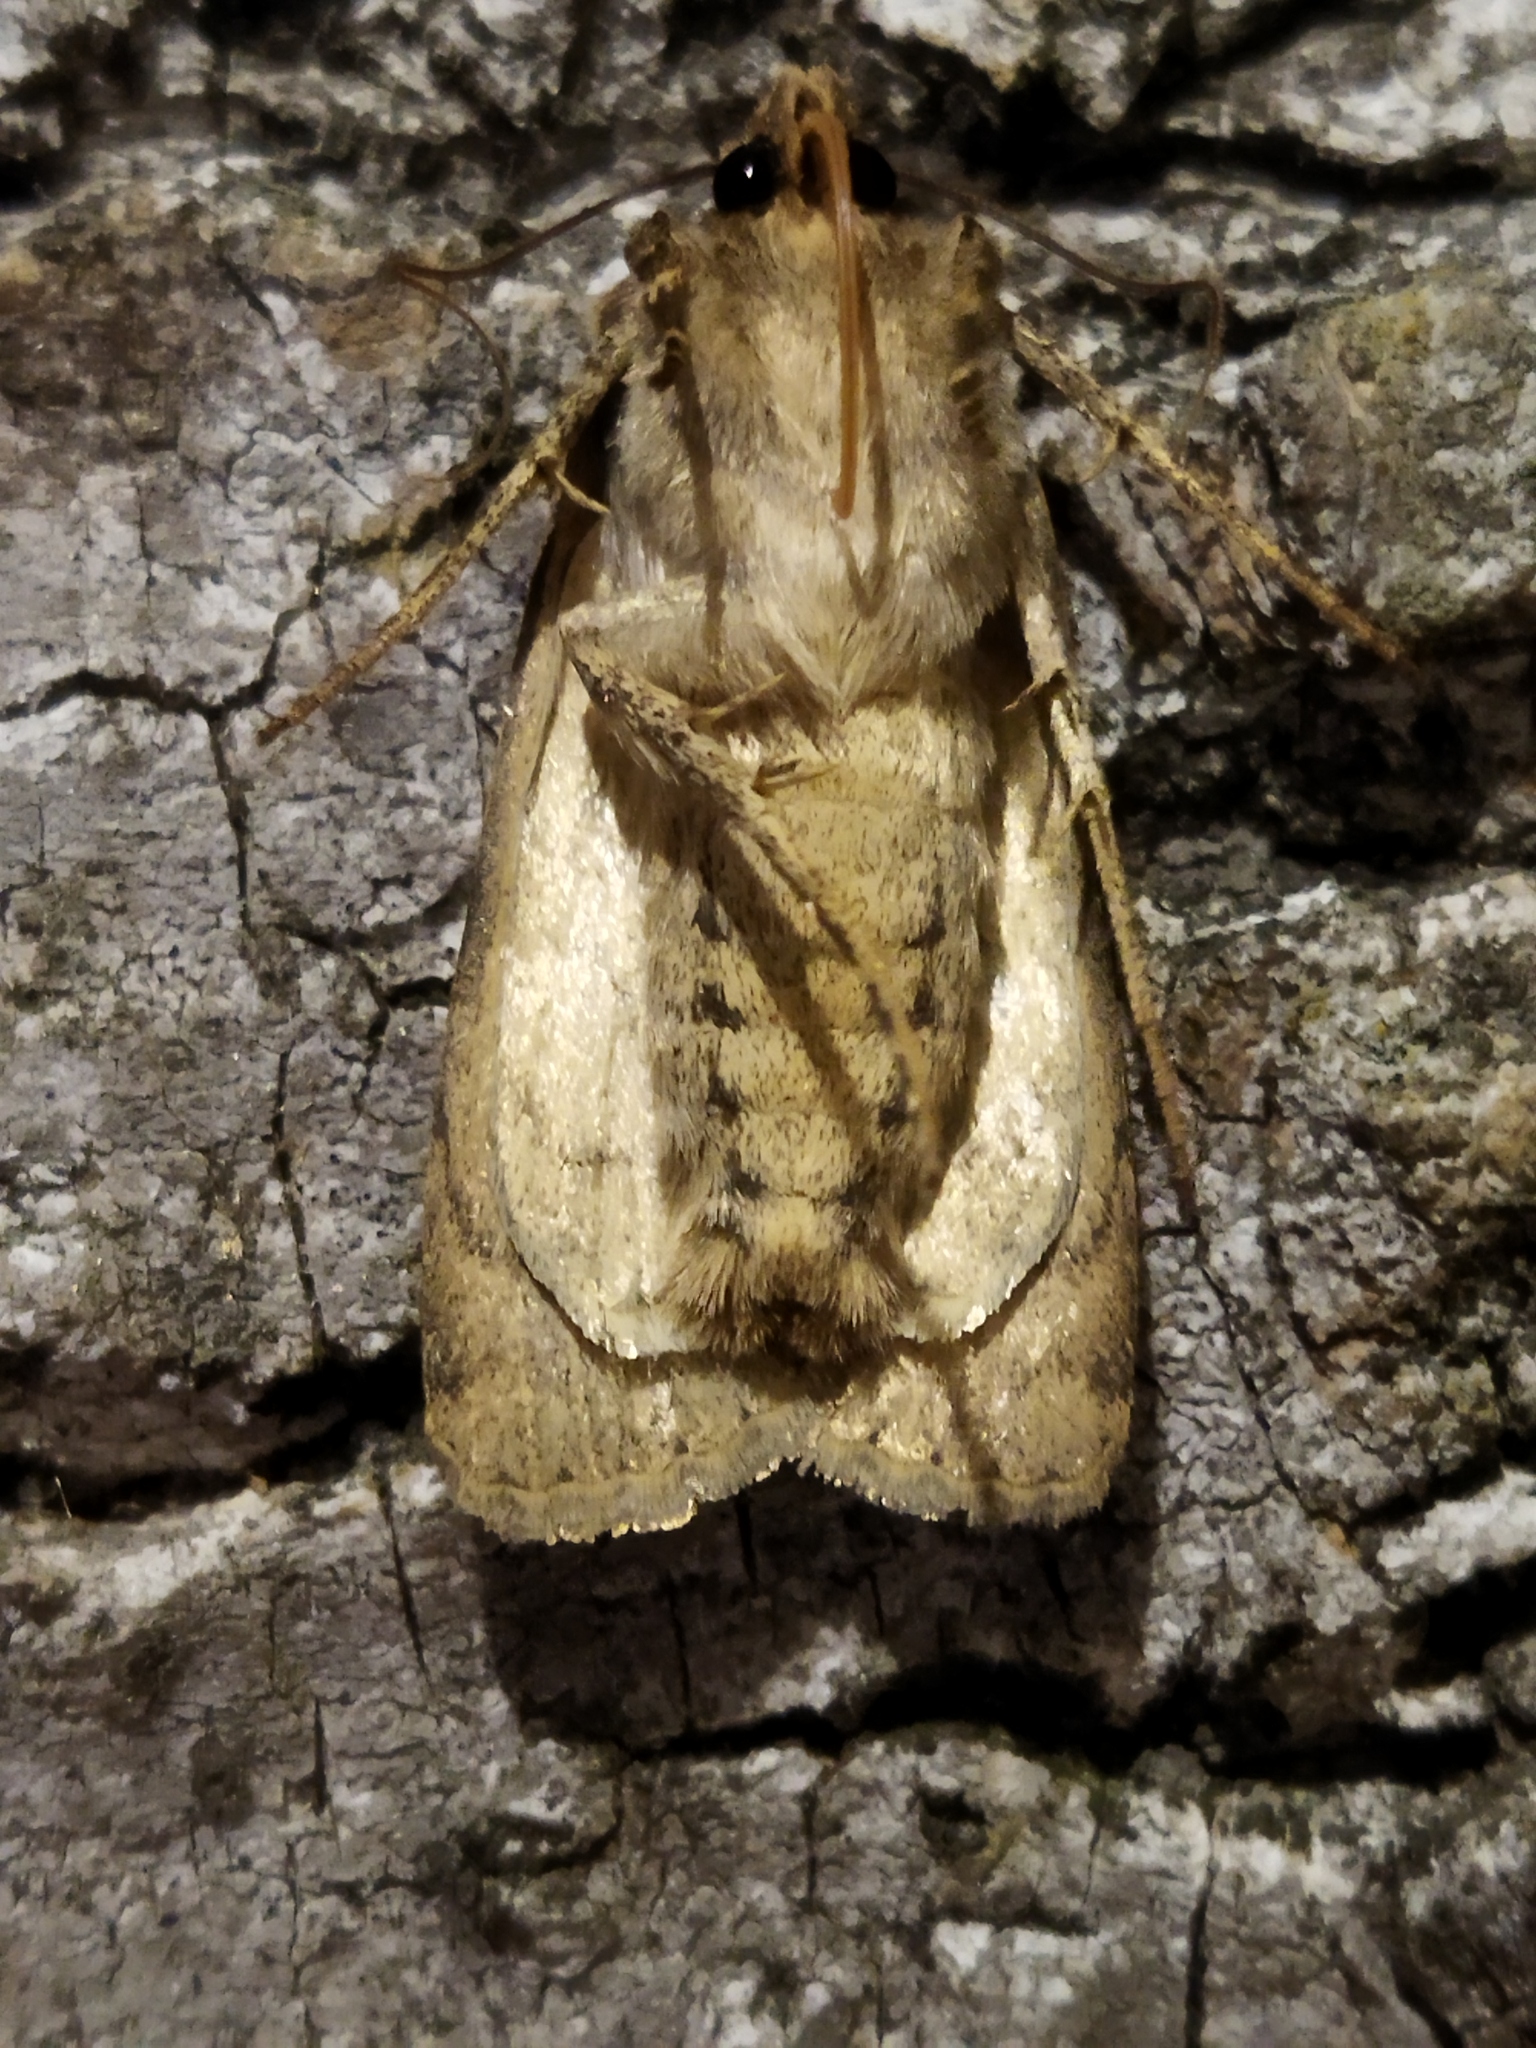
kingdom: Animalia
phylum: Arthropoda
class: Insecta
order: Lepidoptera
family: Noctuidae
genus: Rhyacia
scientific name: Rhyacia simulans
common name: Dotted rustic
